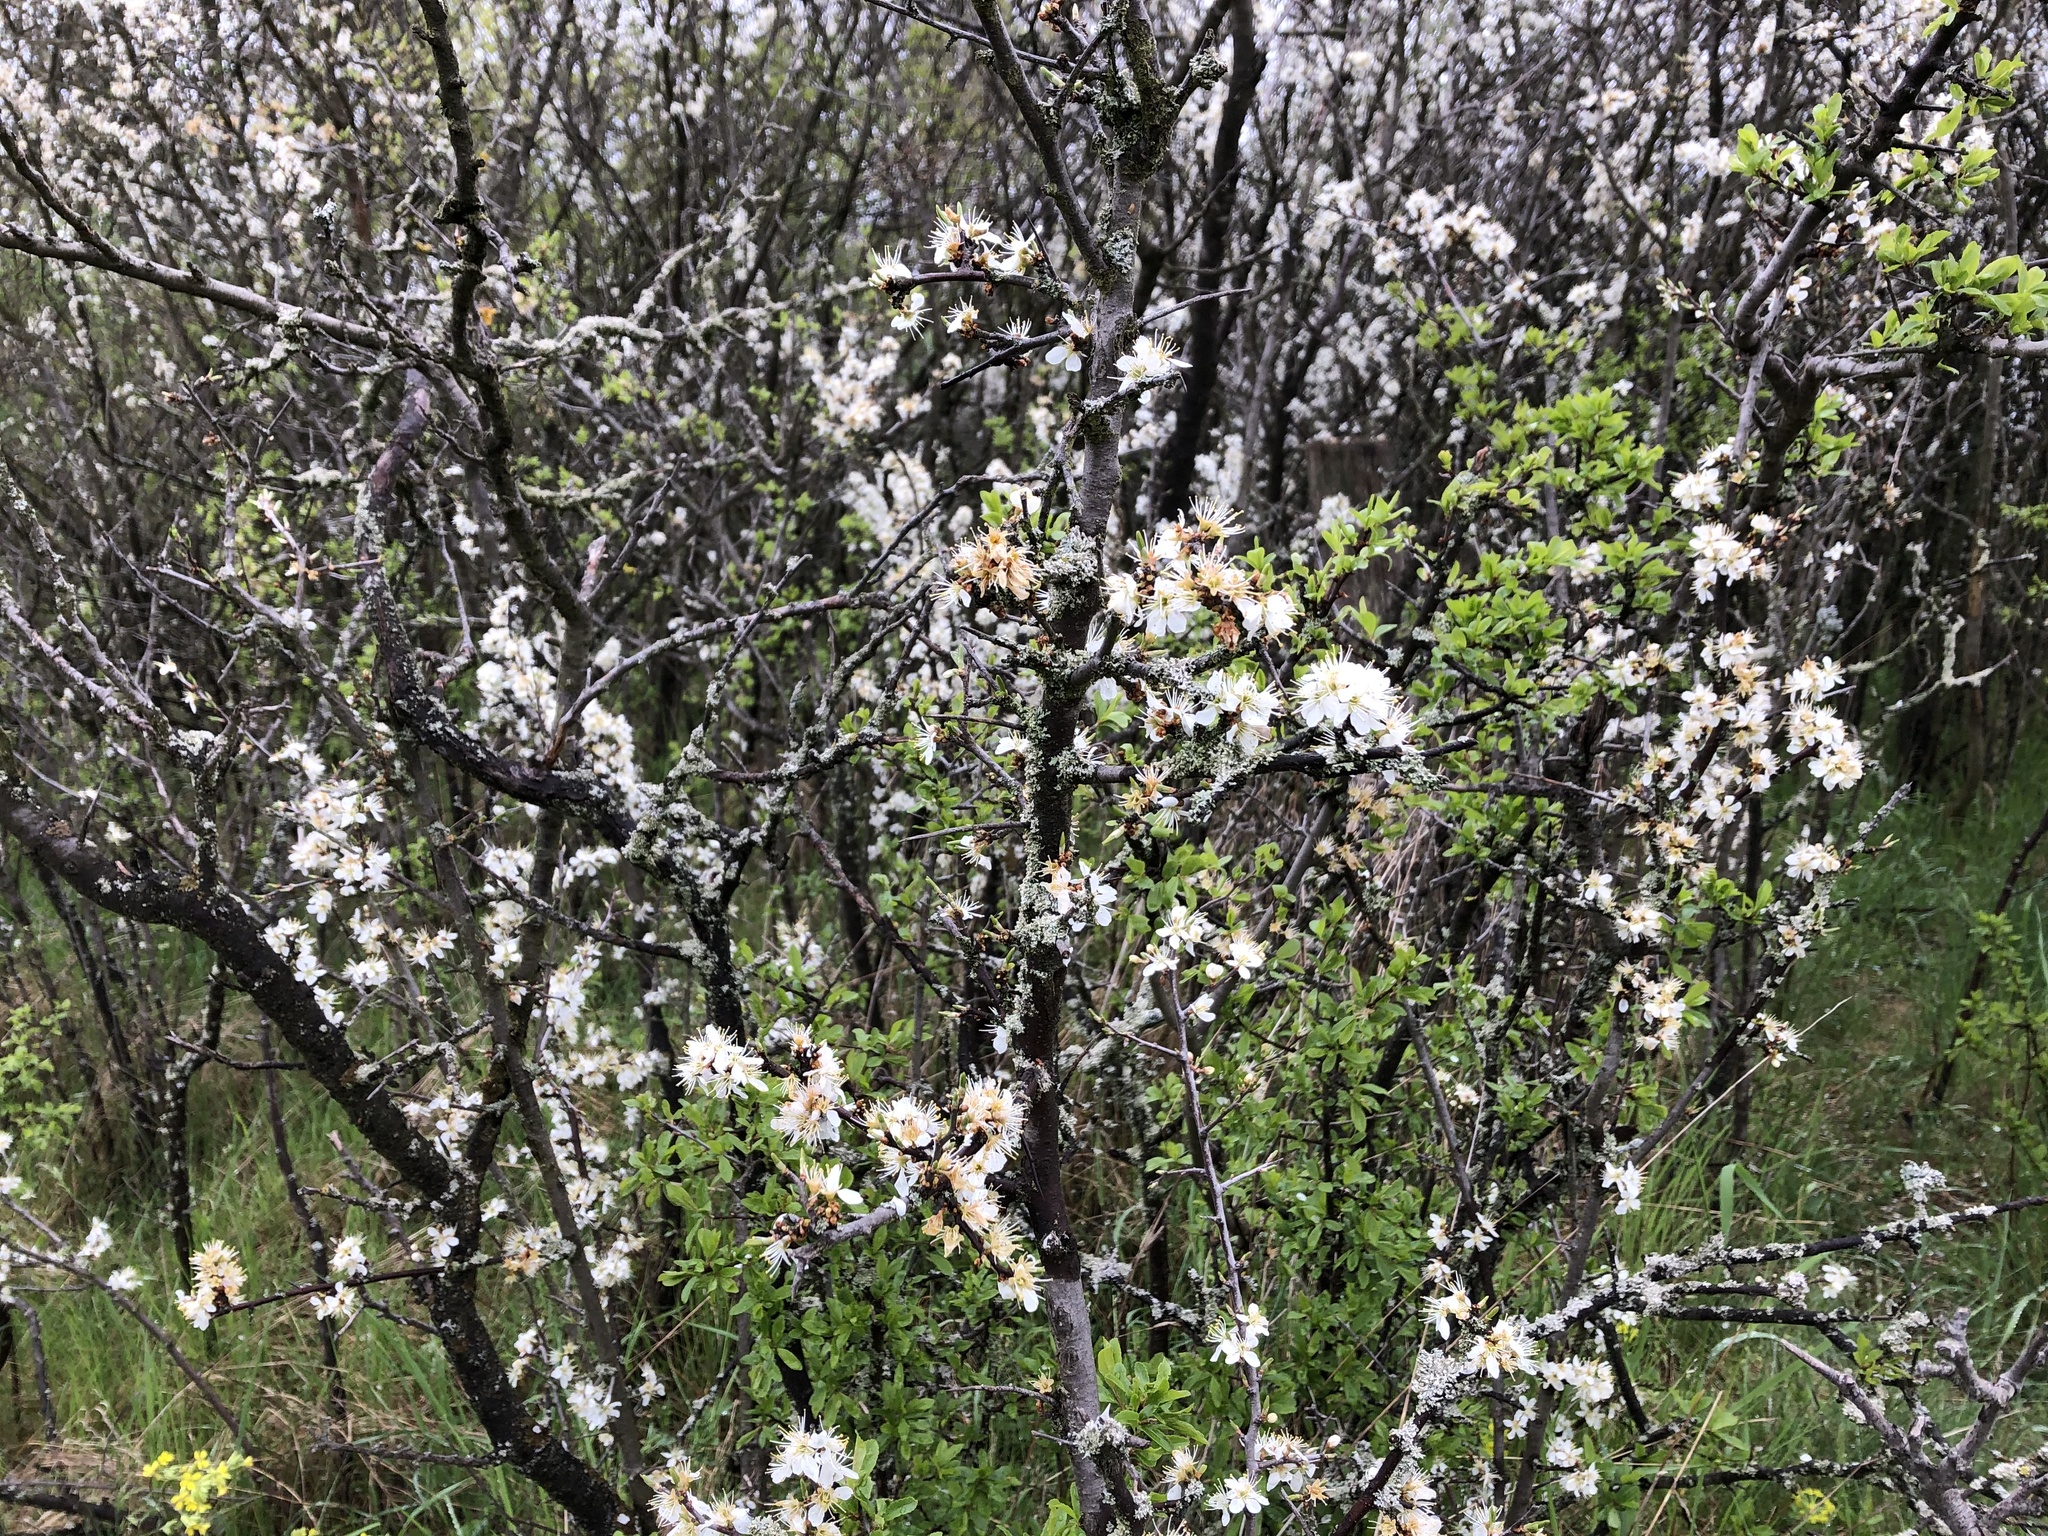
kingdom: Plantae
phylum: Tracheophyta
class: Magnoliopsida
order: Rosales
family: Rosaceae
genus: Prunus
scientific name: Prunus spinosa
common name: Blackthorn
